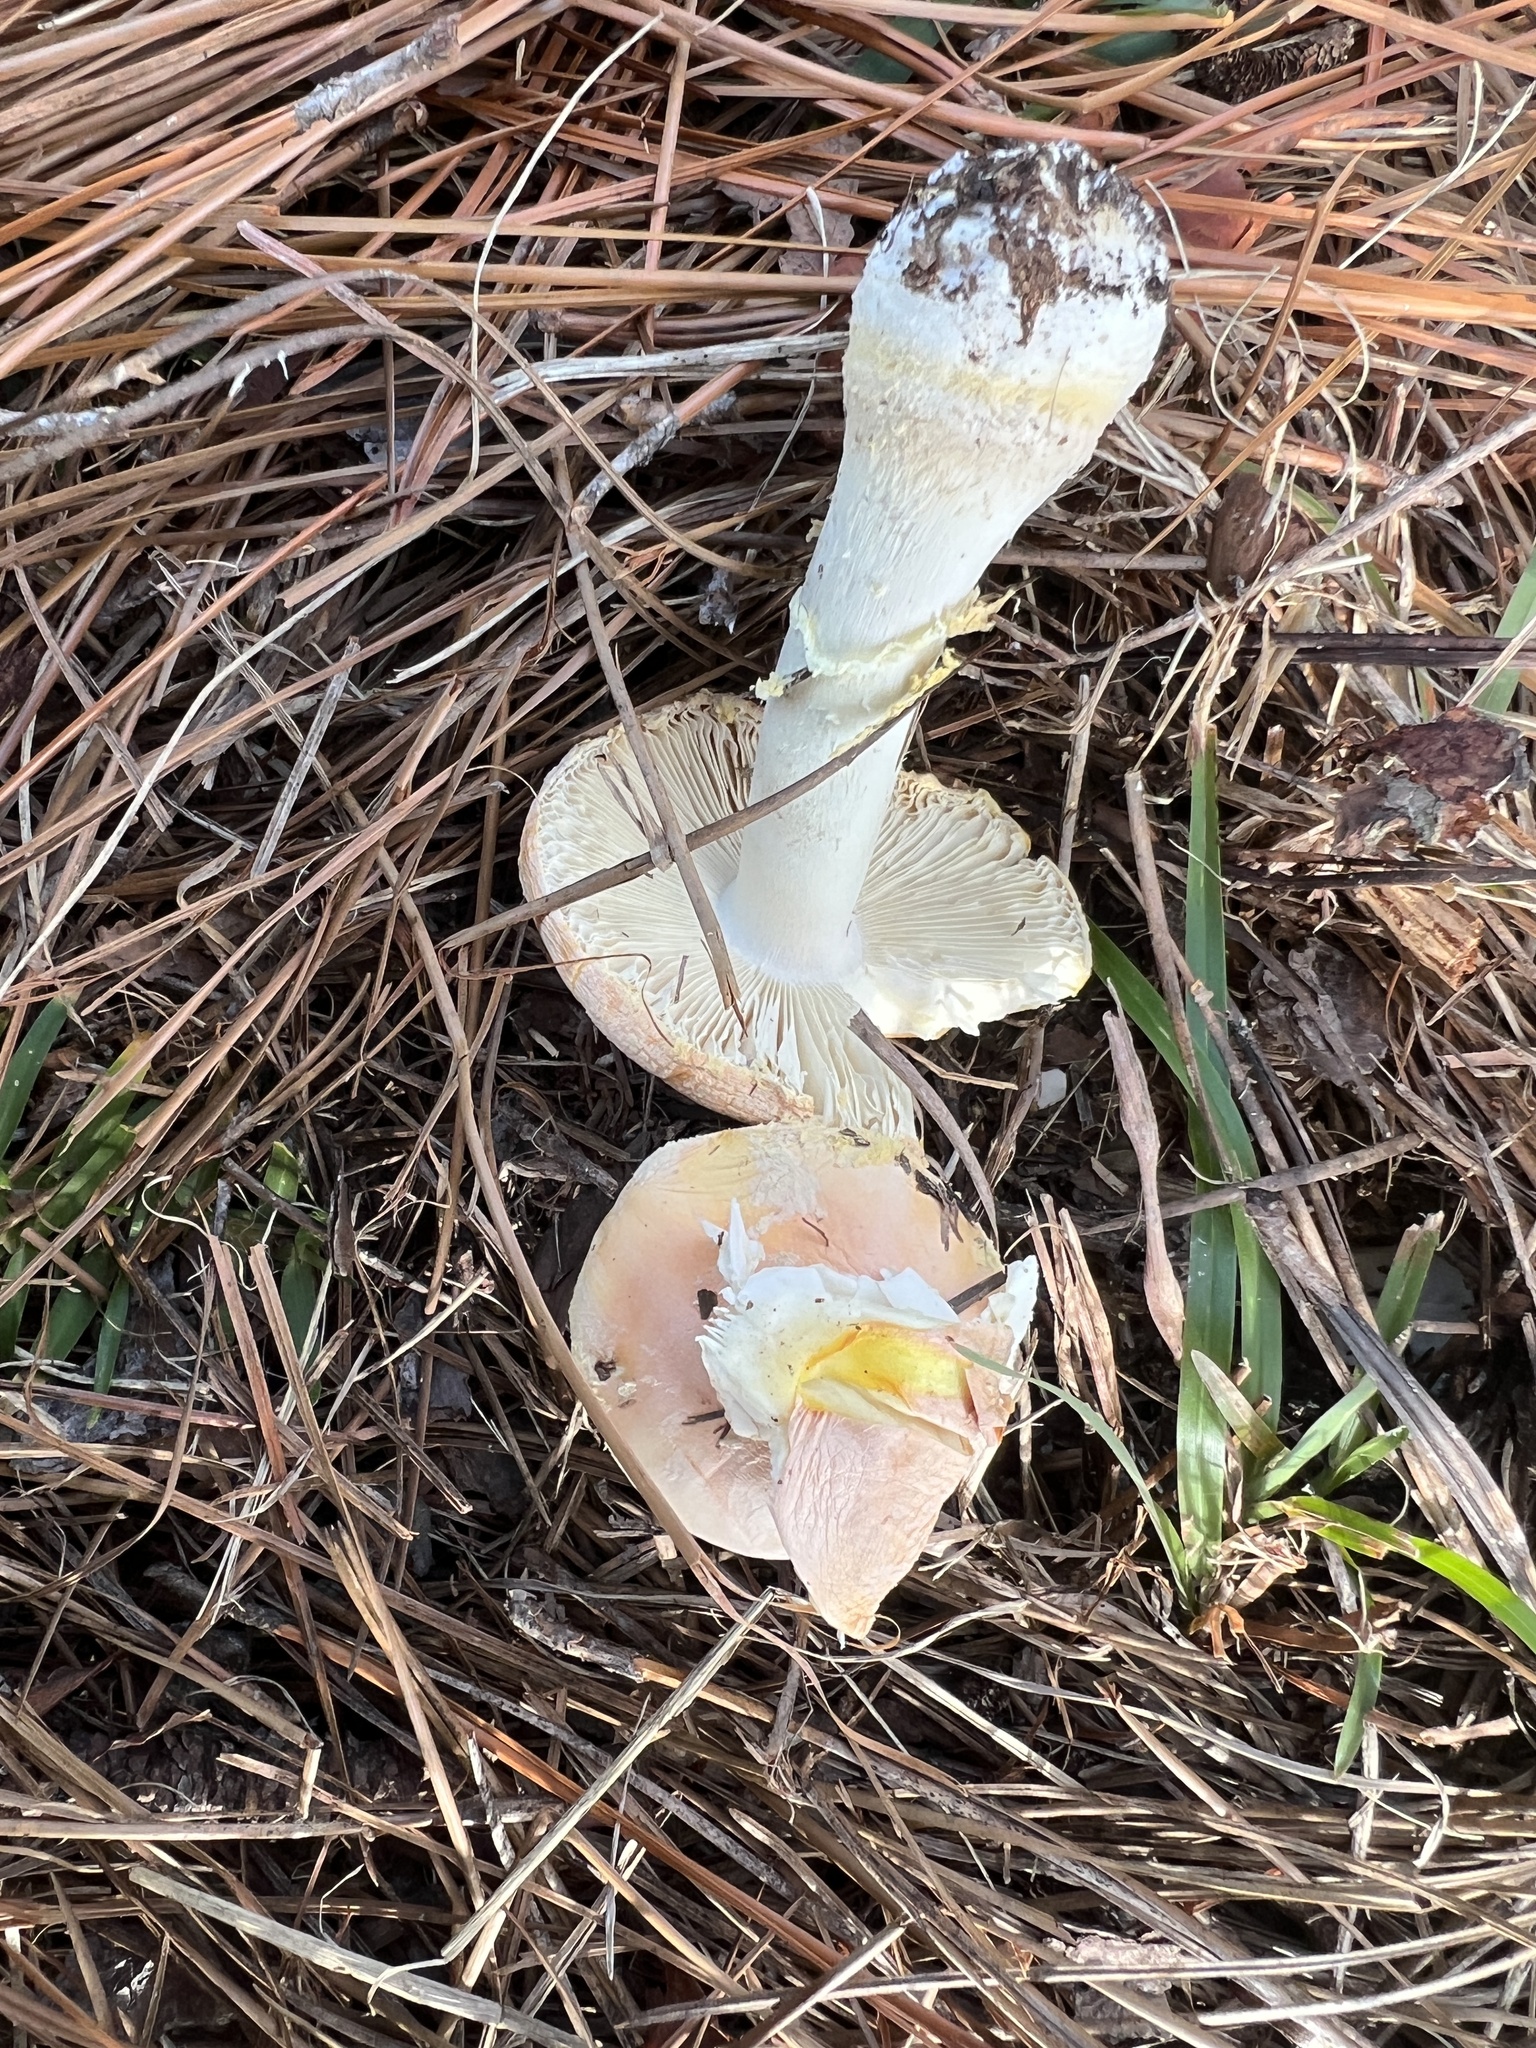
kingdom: Fungi
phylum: Basidiomycota
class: Agaricomycetes
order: Agaricales
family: Amanitaceae
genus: Amanita
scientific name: Amanita persicina
